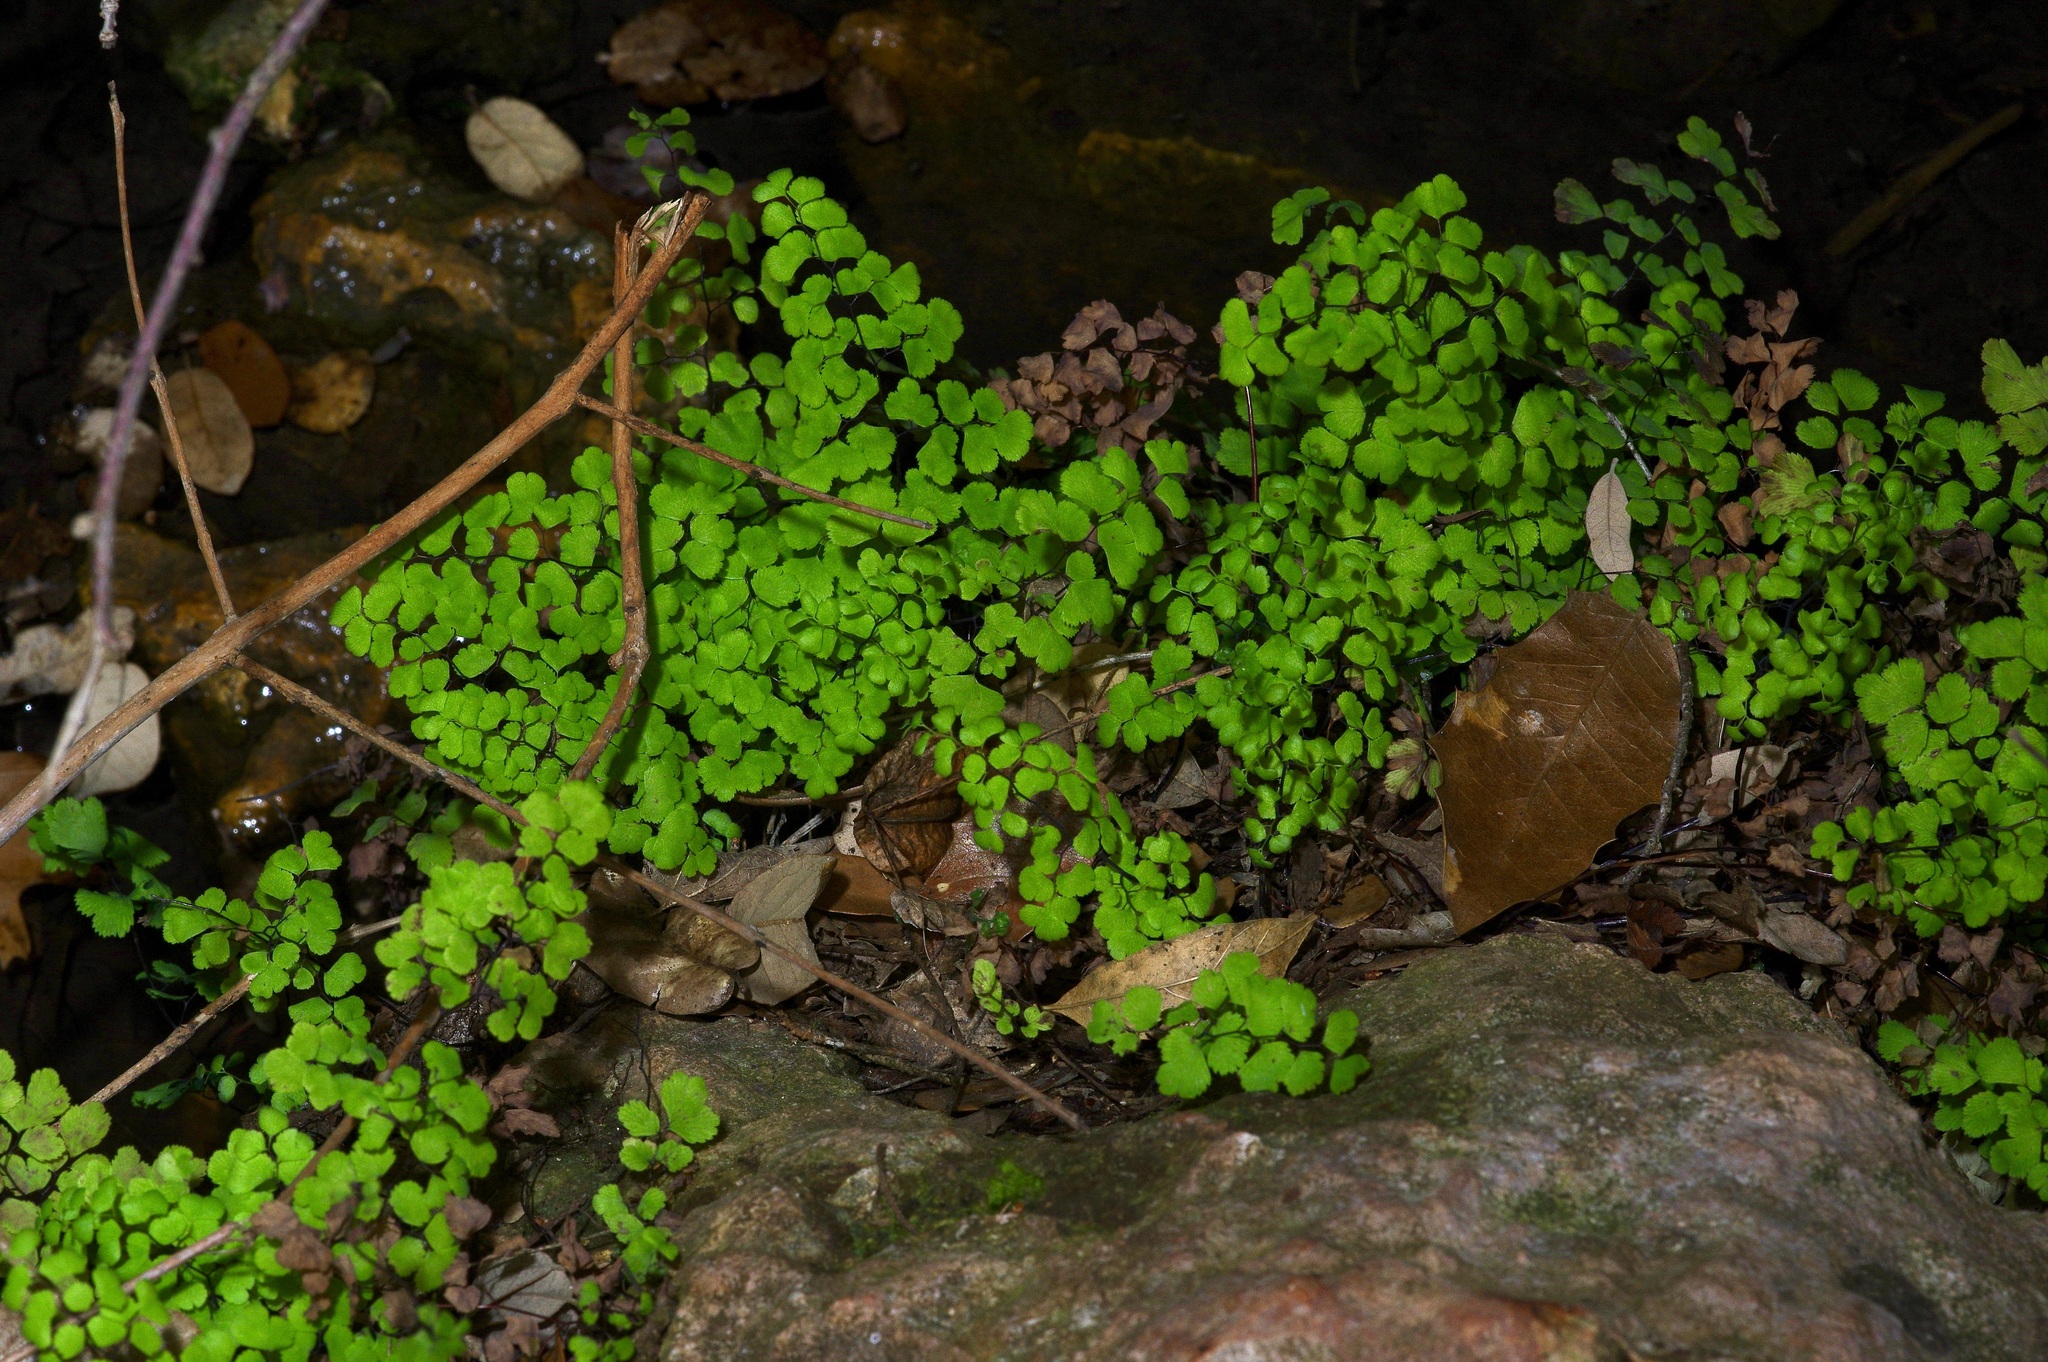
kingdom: Plantae
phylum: Tracheophyta
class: Polypodiopsida
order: Polypodiales
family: Pteridaceae
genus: Adiantum
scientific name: Adiantum capillus-veneris
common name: Maidenhair fern
